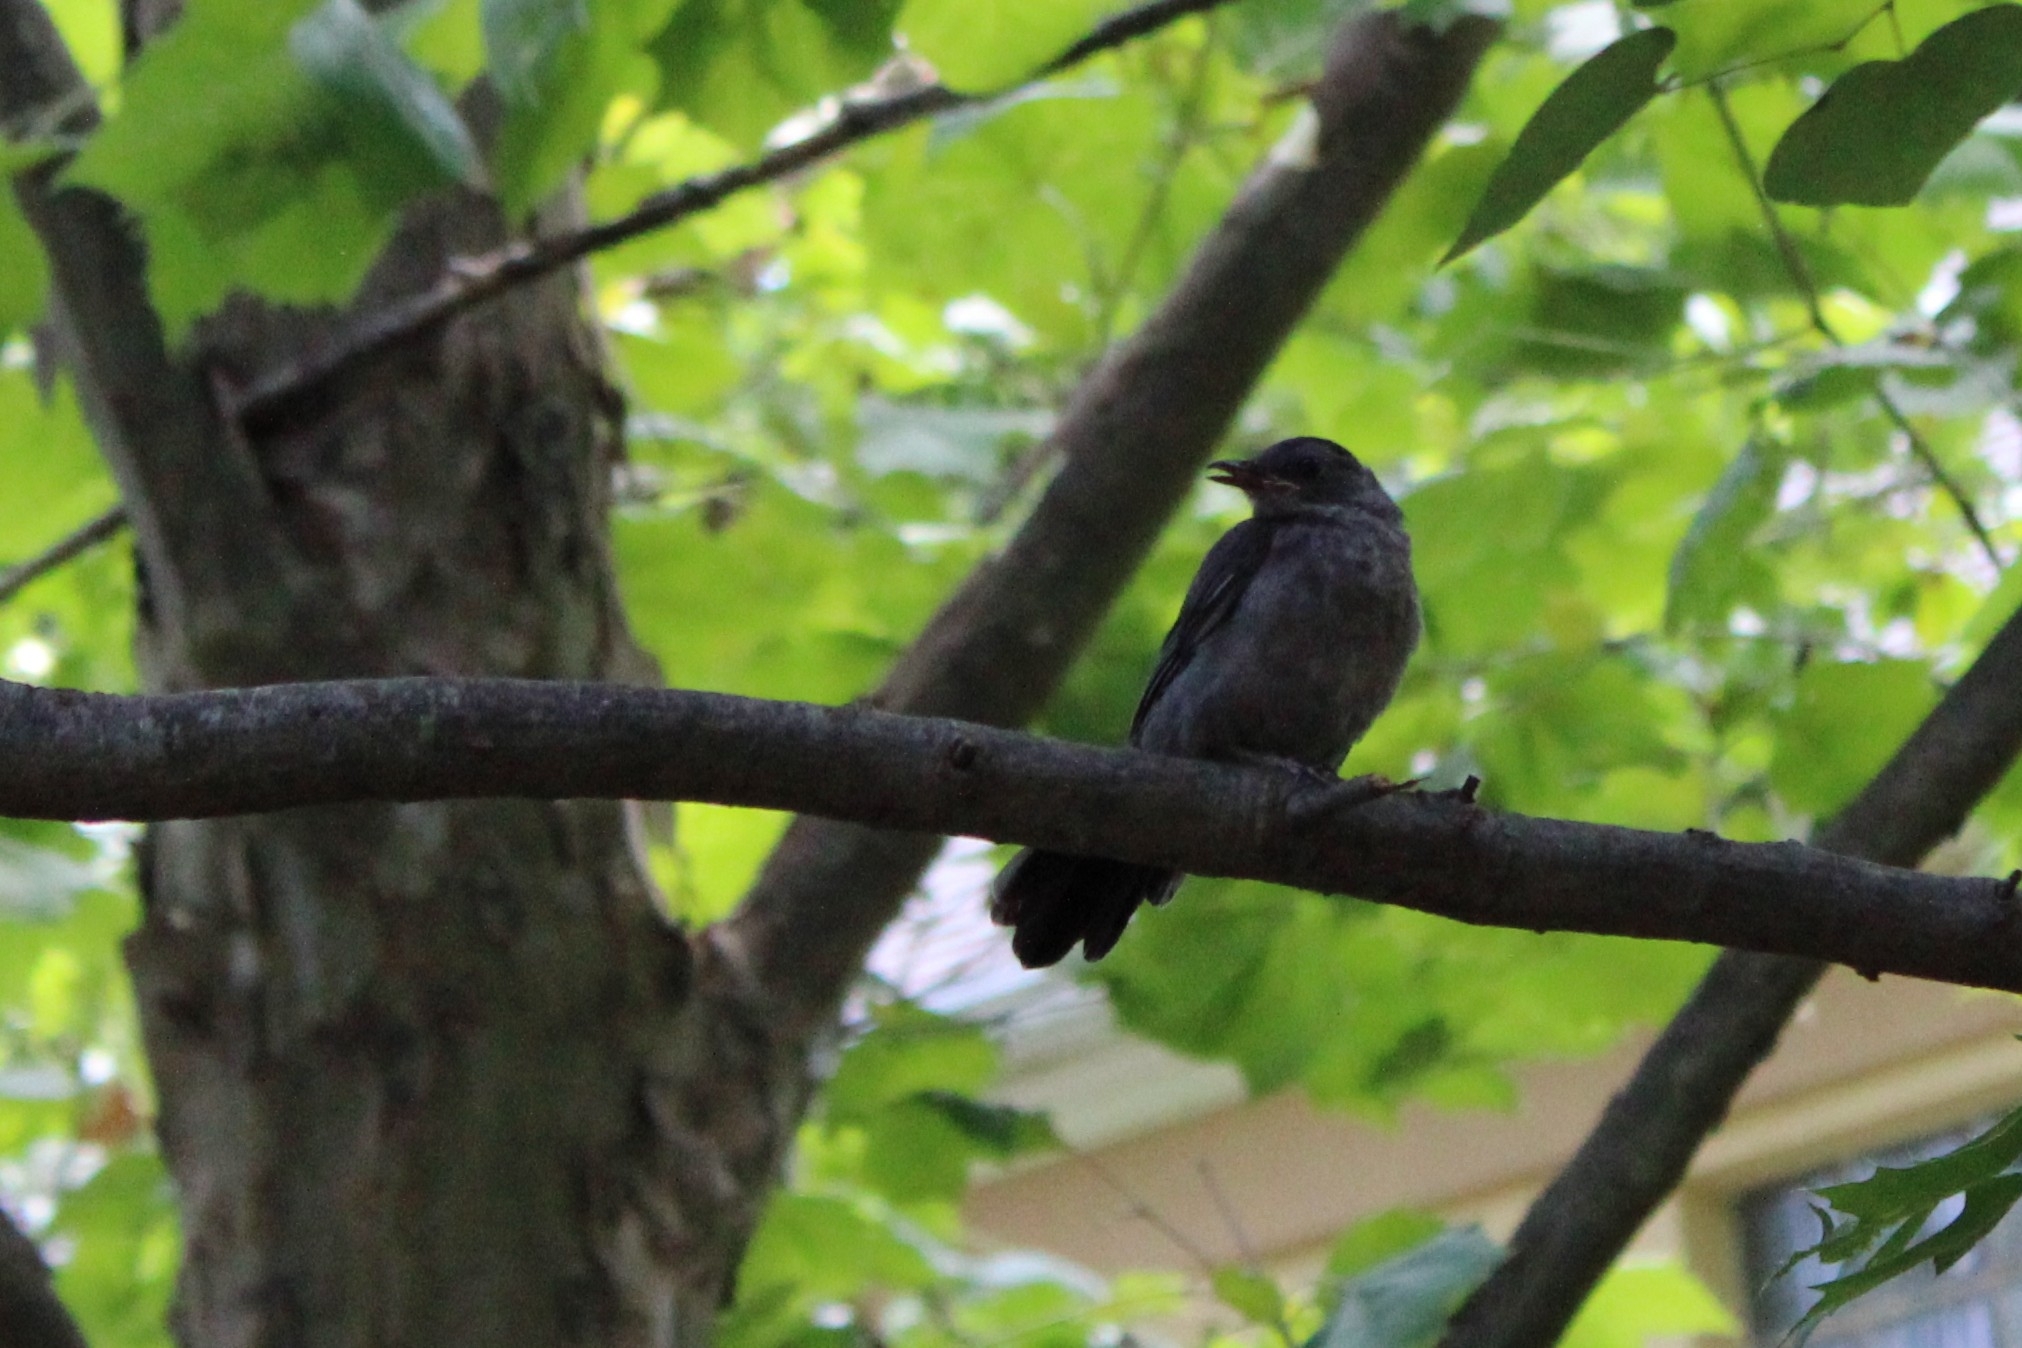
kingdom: Animalia
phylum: Chordata
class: Aves
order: Passeriformes
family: Mimidae
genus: Dumetella
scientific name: Dumetella carolinensis
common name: Gray catbird
